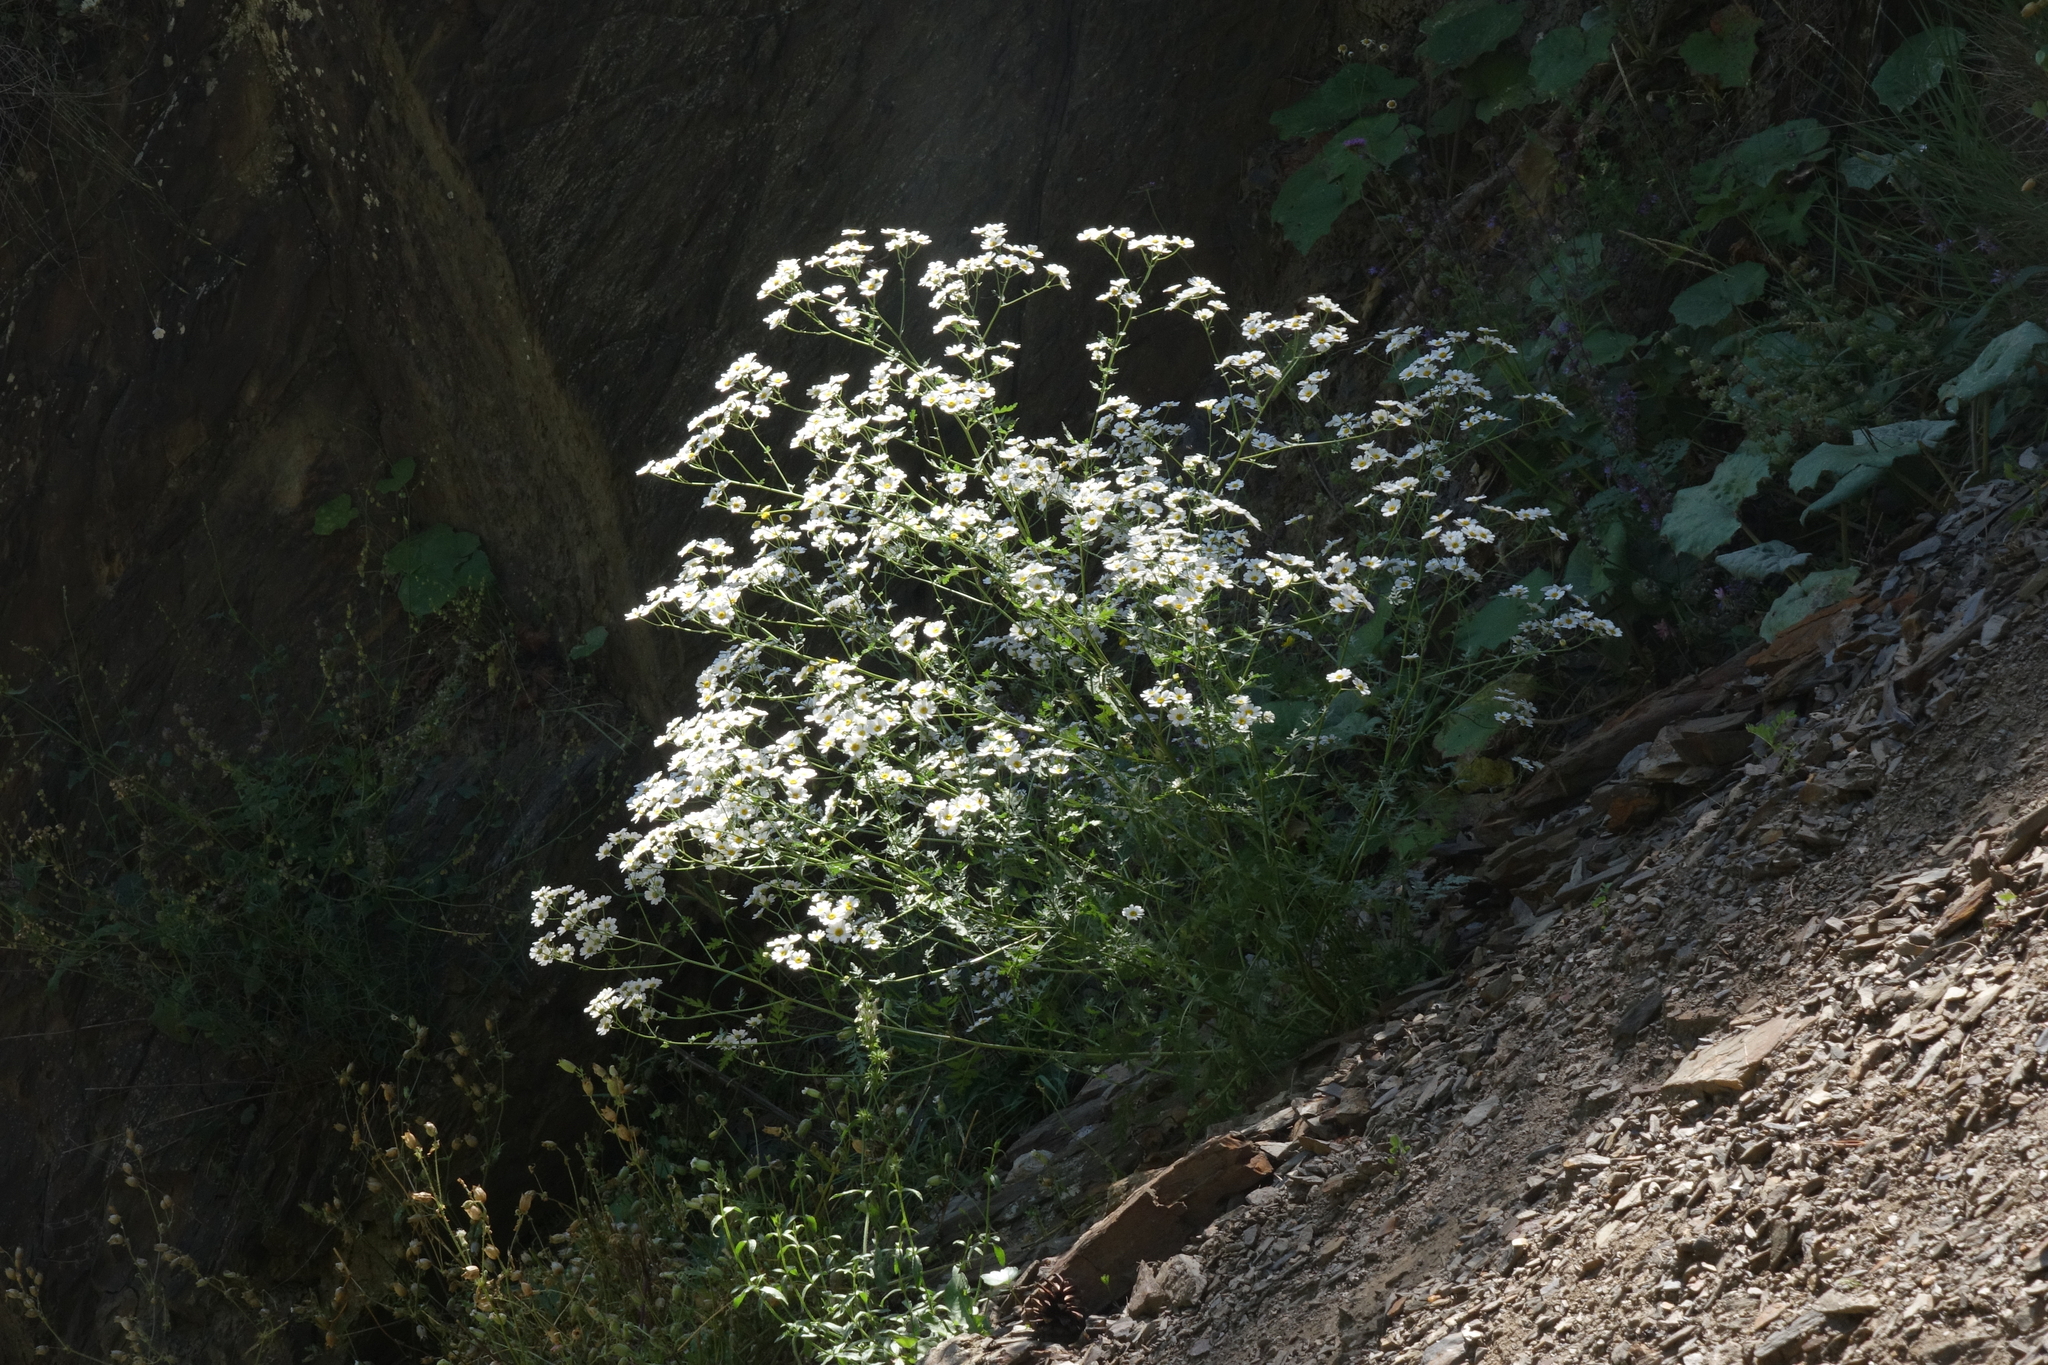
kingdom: Plantae
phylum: Tracheophyta
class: Magnoliopsida
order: Asterales
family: Asteraceae
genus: Tanacetum
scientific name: Tanacetum partheniifolium
